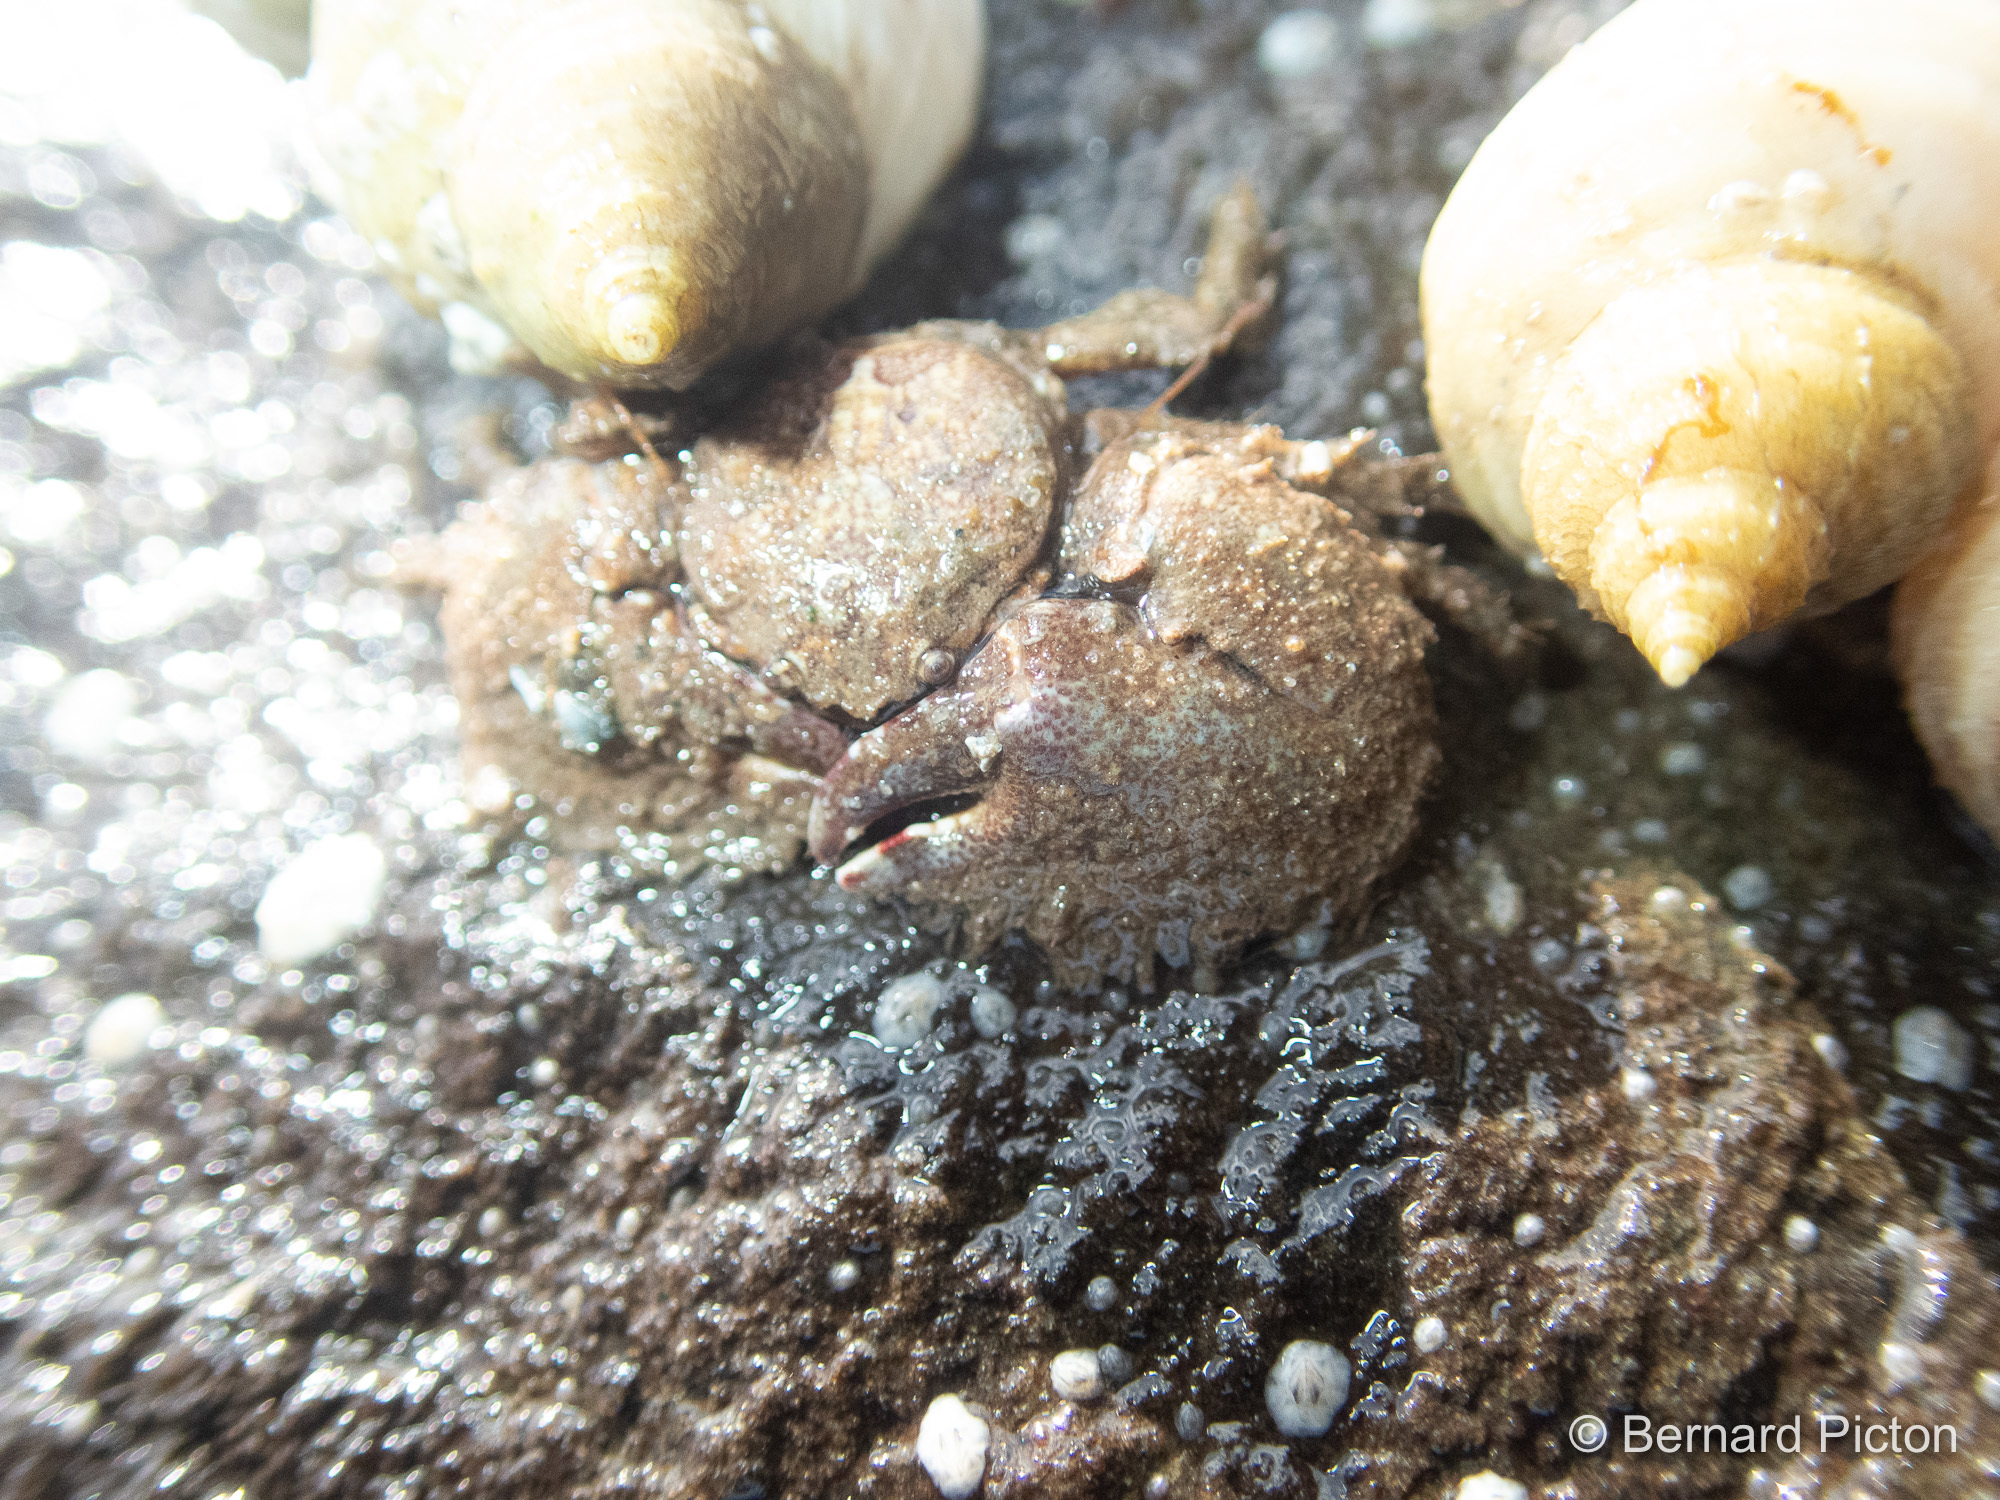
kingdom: Animalia
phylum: Arthropoda
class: Malacostraca
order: Decapoda
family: Porcellanidae
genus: Porcellana
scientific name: Porcellana platycheles
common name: Porcelain crab
